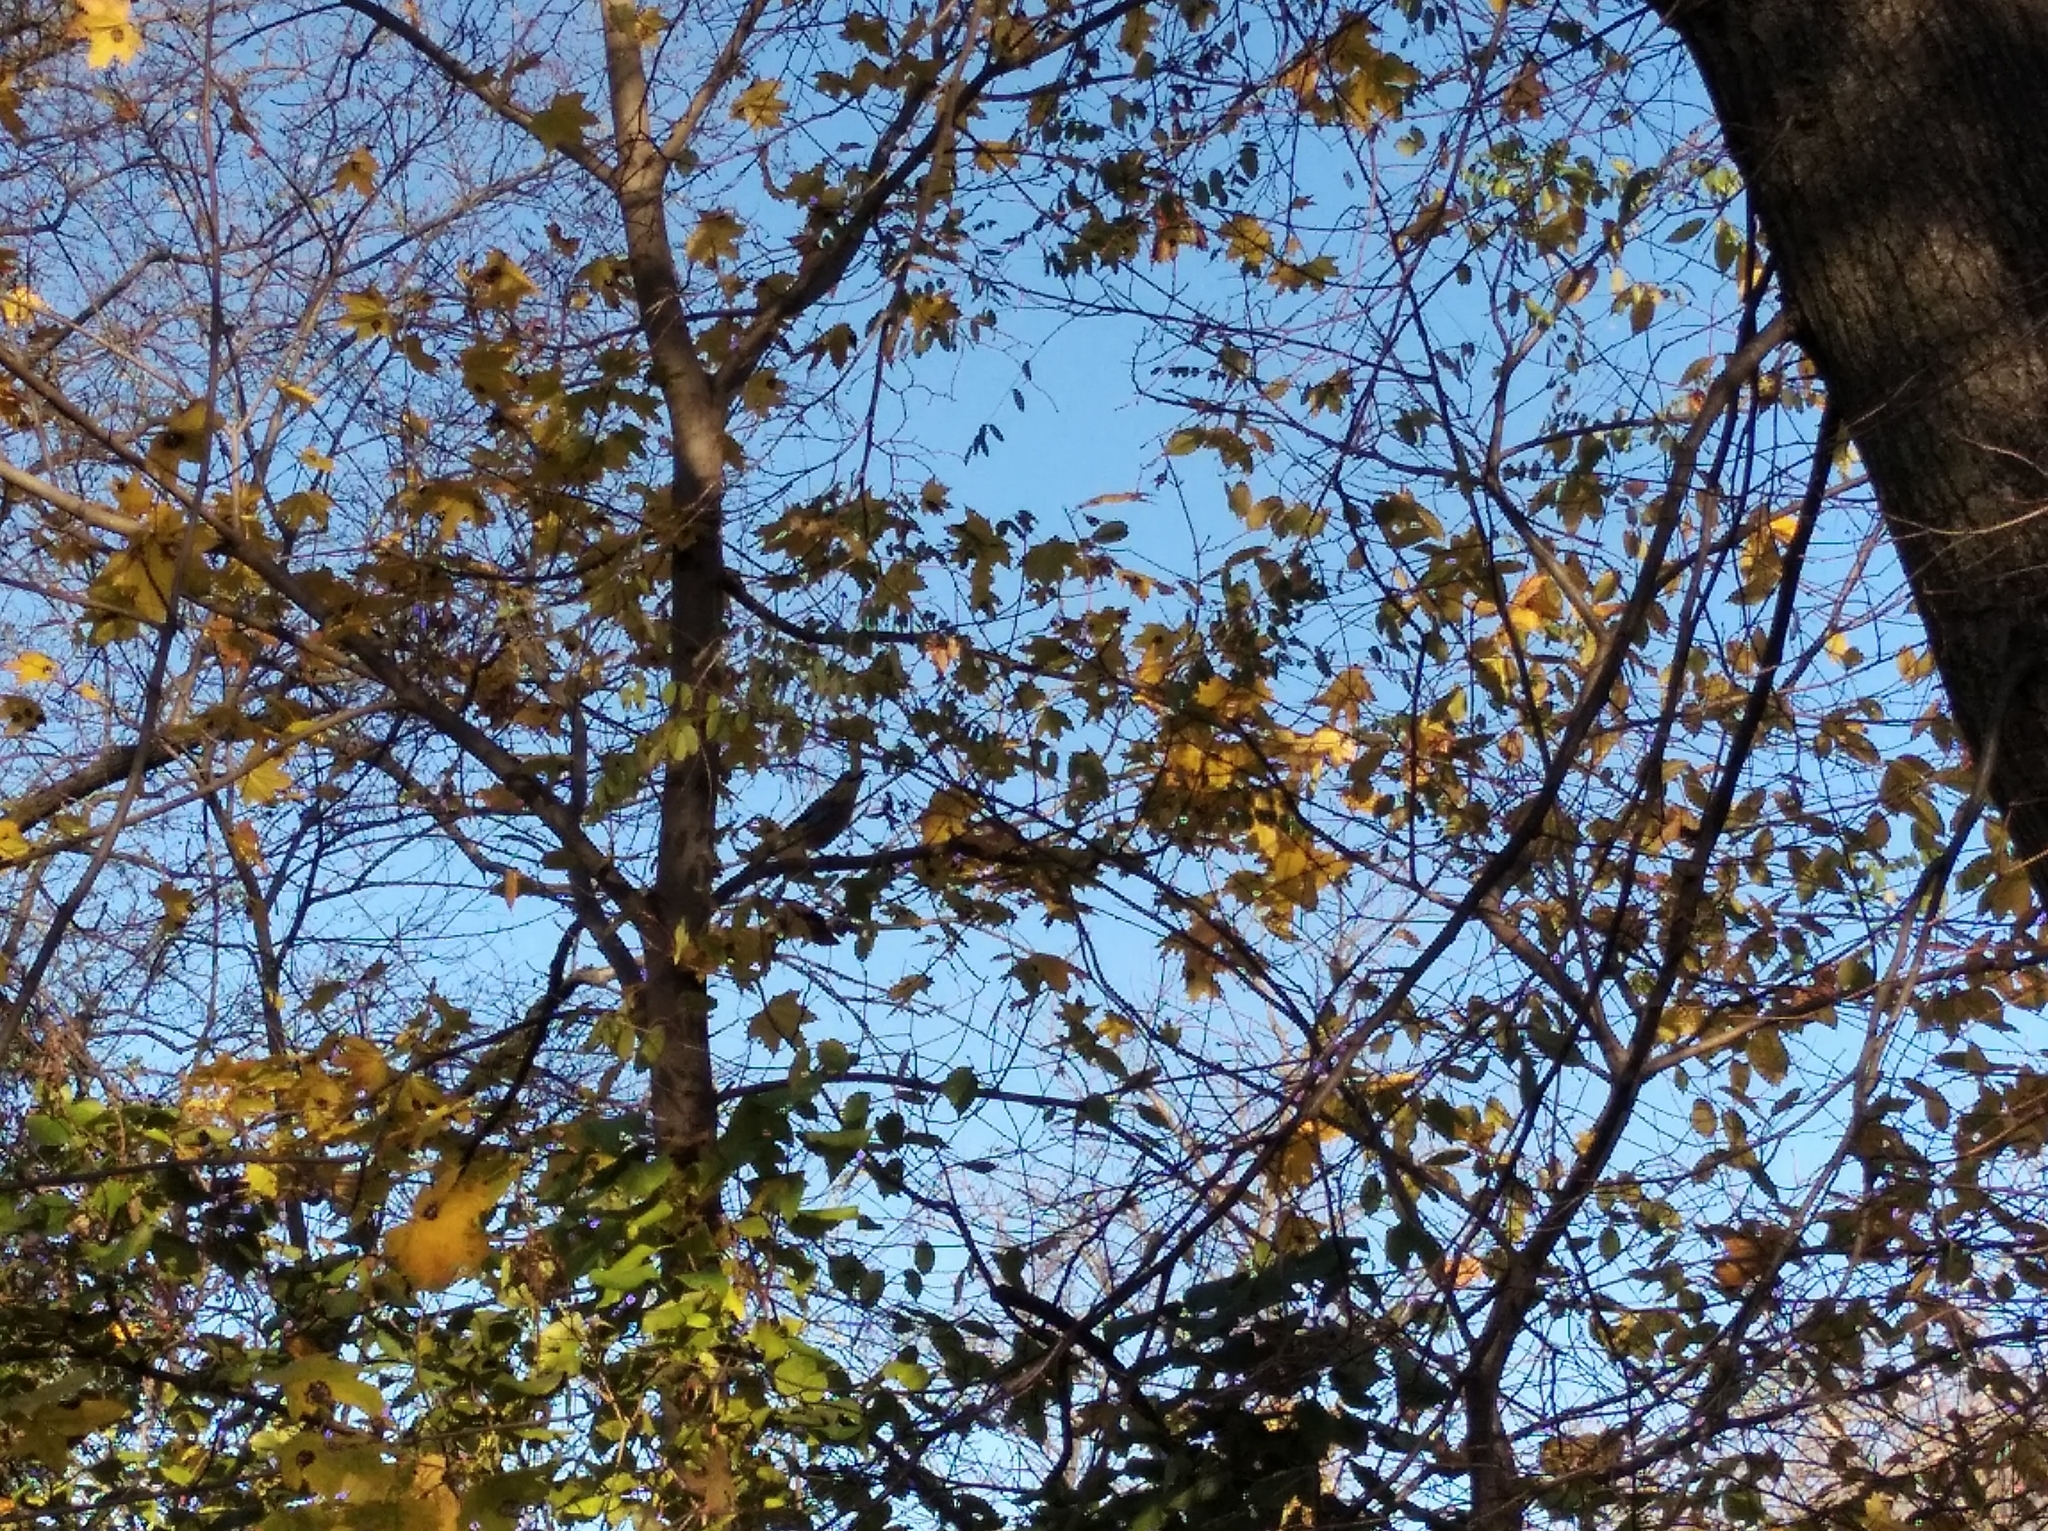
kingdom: Animalia
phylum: Chordata
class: Aves
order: Passeriformes
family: Corvidae
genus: Garrulus
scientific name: Garrulus glandarius
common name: Eurasian jay
